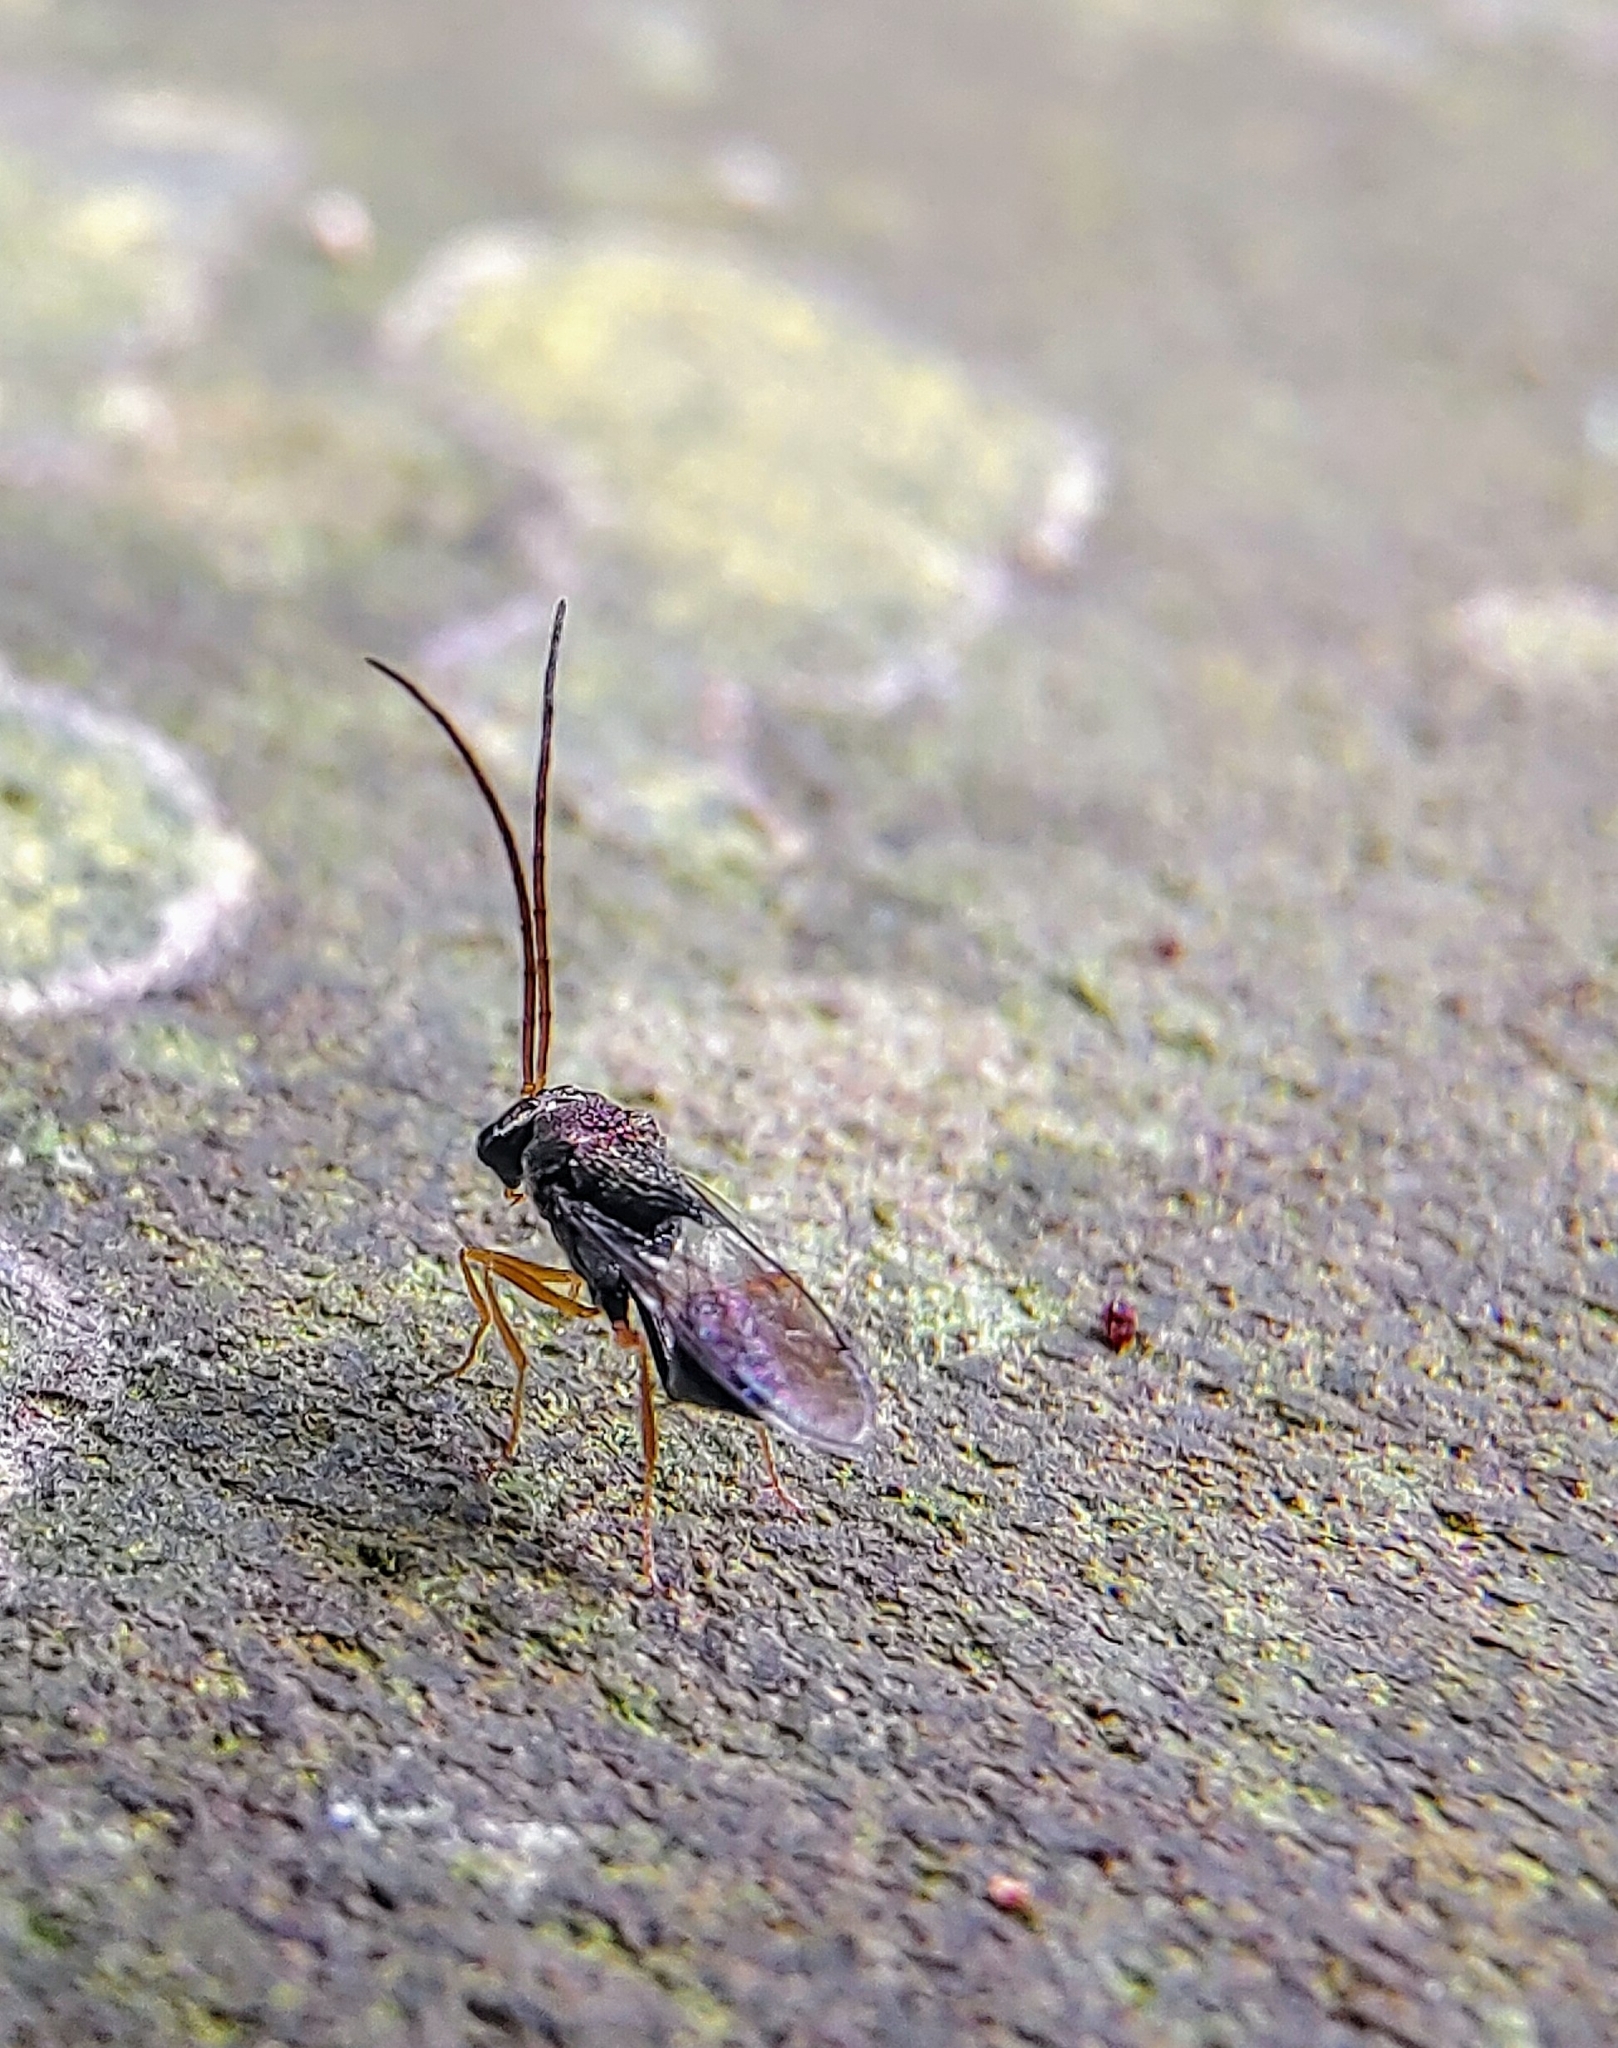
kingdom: Animalia
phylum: Arthropoda
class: Insecta
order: Hymenoptera
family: Eucharitidae
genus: Ancylotropus
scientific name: Ancylotropus cariniscutis
